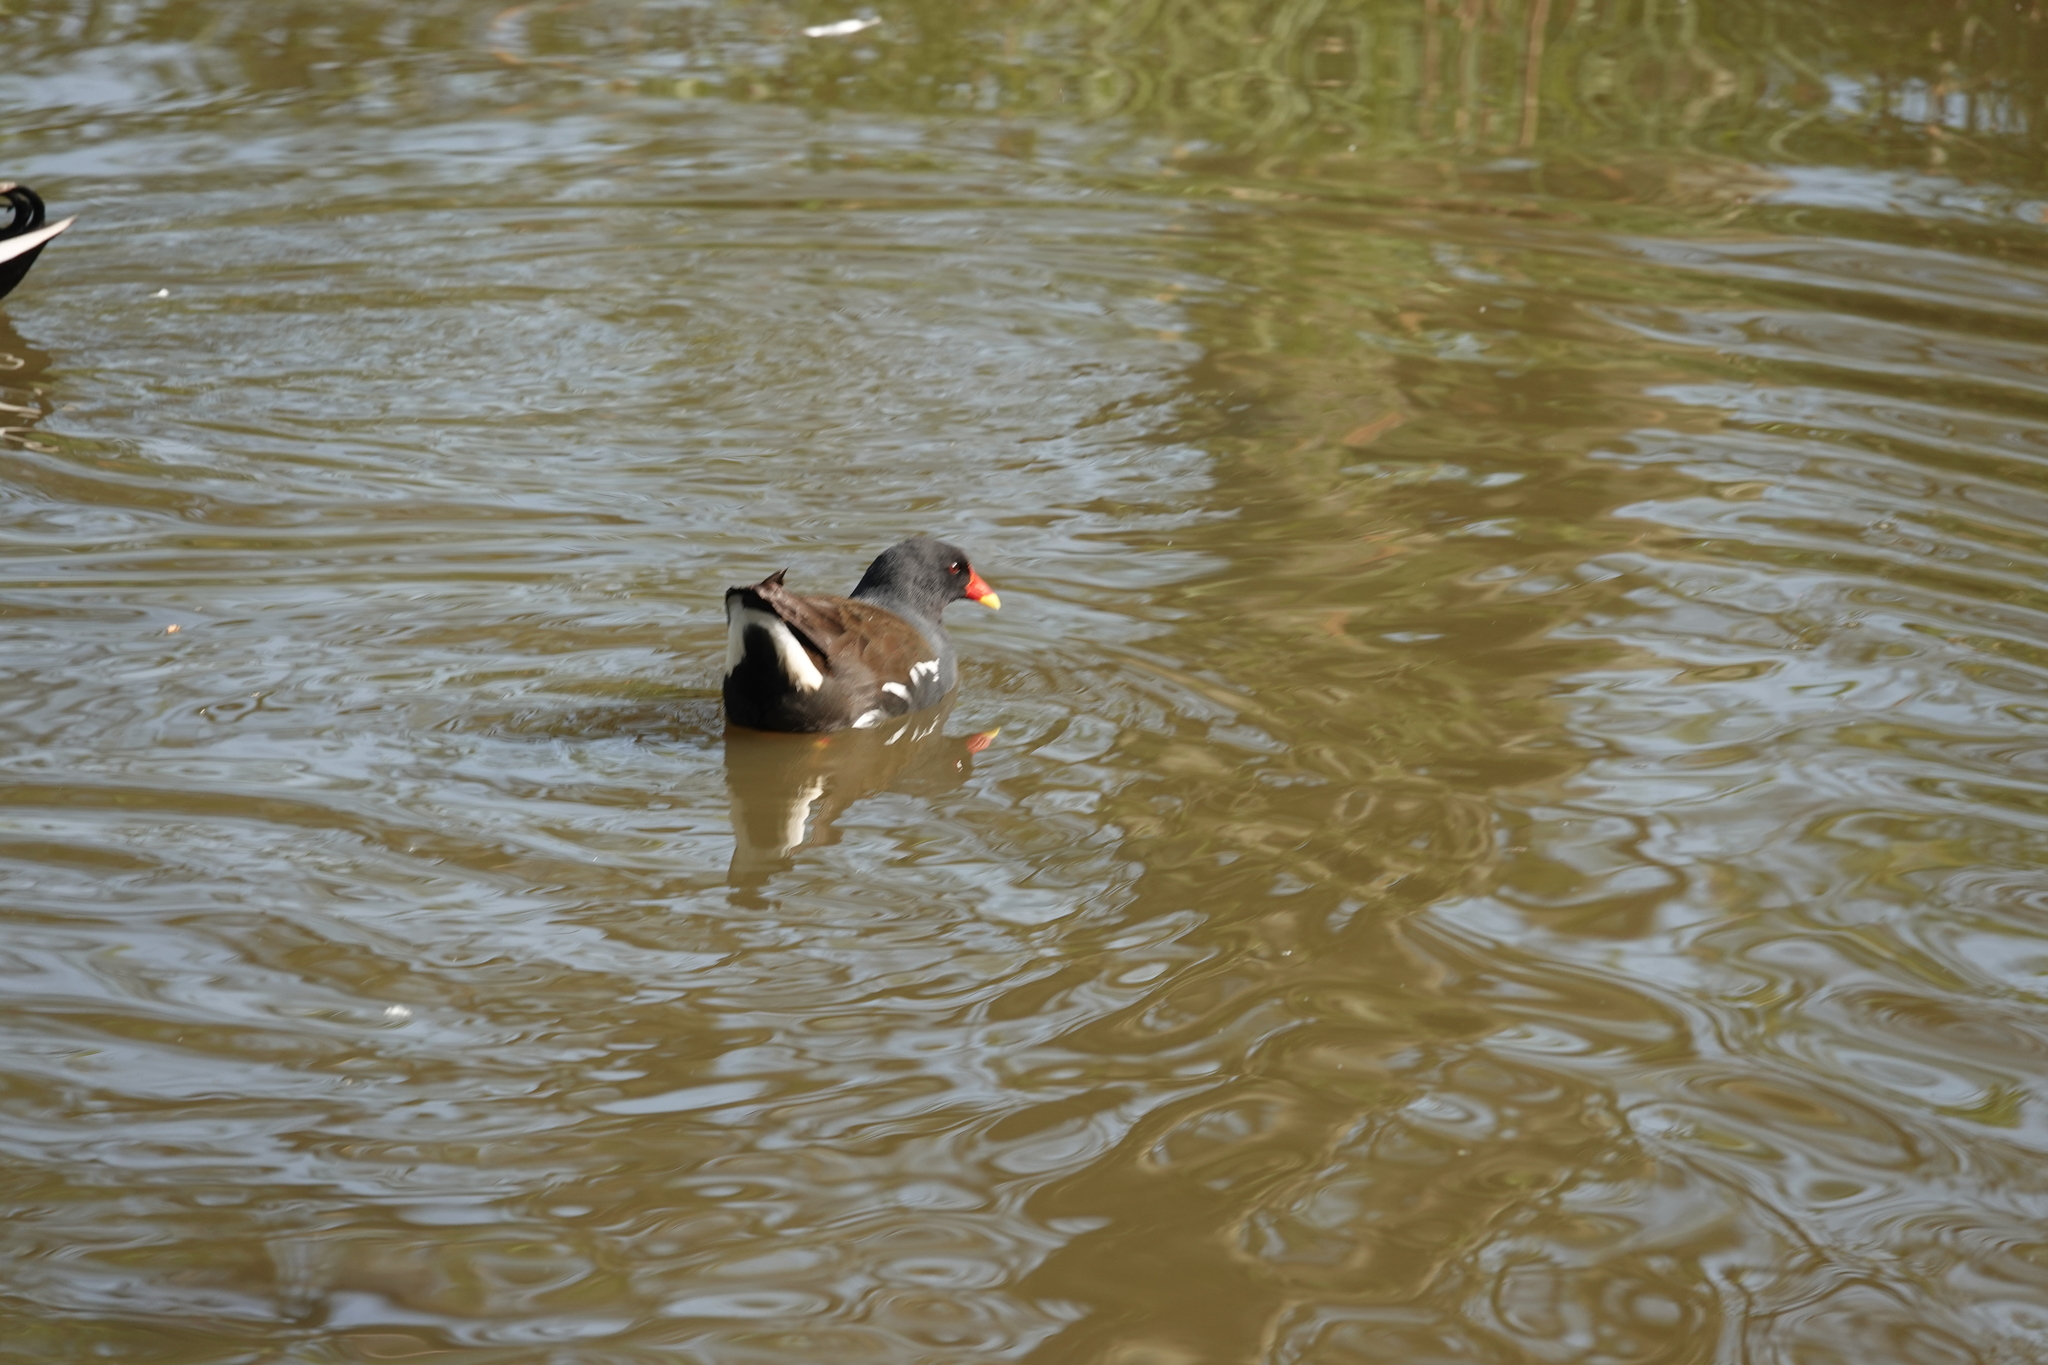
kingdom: Animalia
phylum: Chordata
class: Aves
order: Gruiformes
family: Rallidae
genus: Gallinula
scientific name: Gallinula chloropus
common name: Common moorhen
